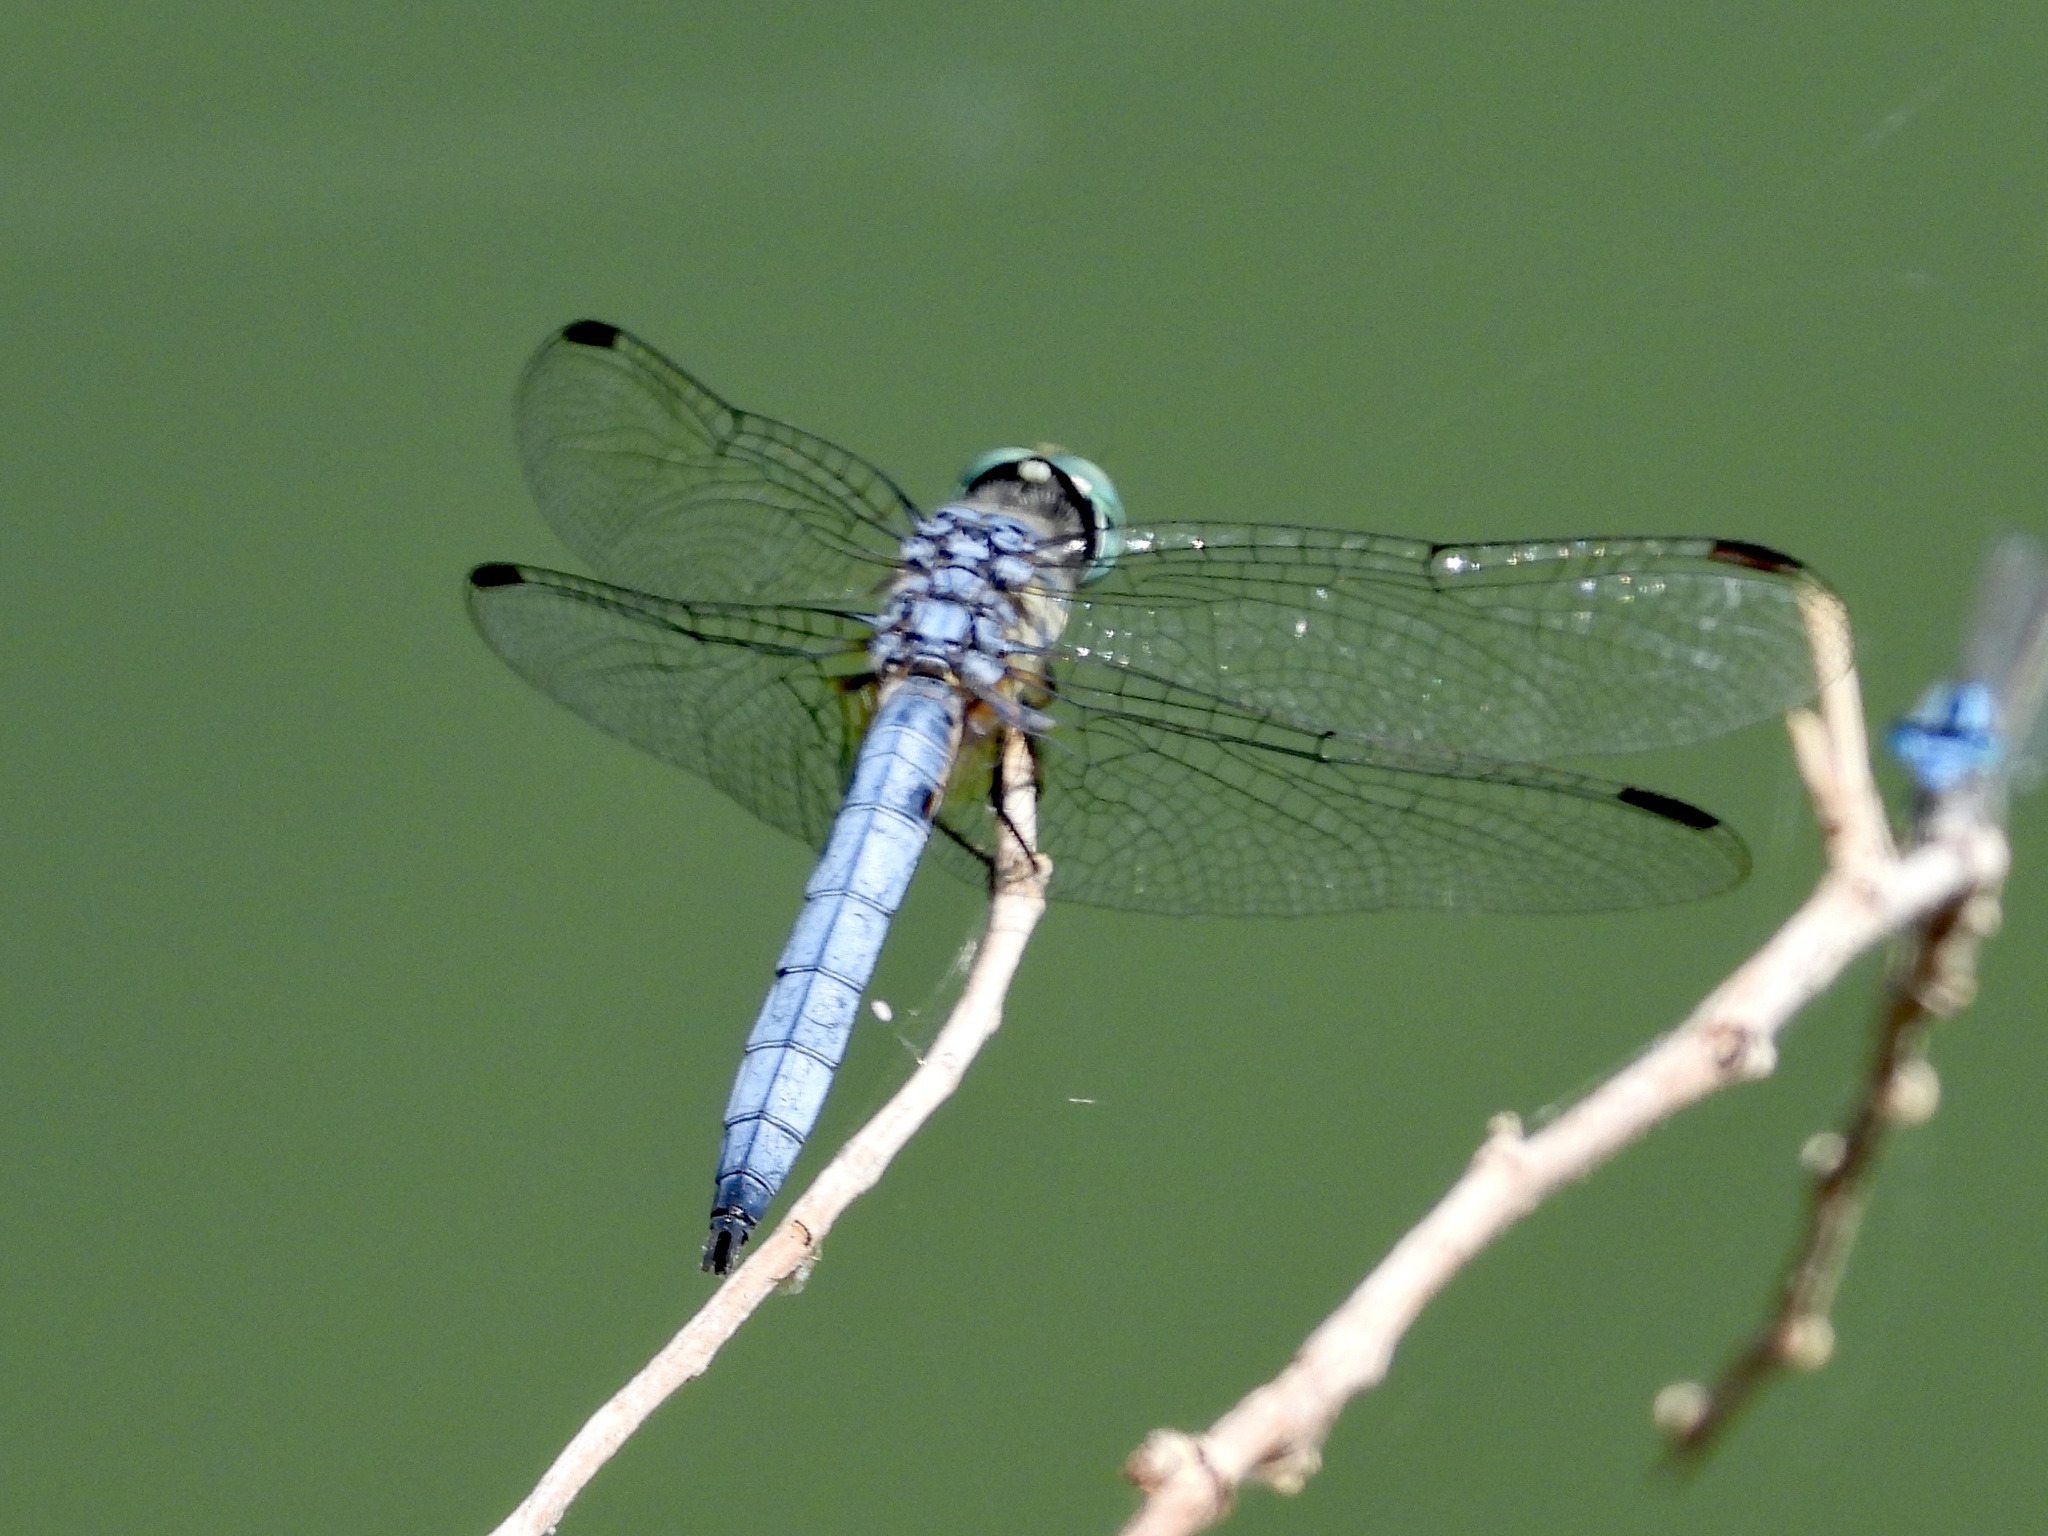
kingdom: Animalia
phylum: Arthropoda
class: Insecta
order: Odonata
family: Libellulidae
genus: Pachydiplax
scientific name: Pachydiplax longipennis
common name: Blue dasher
